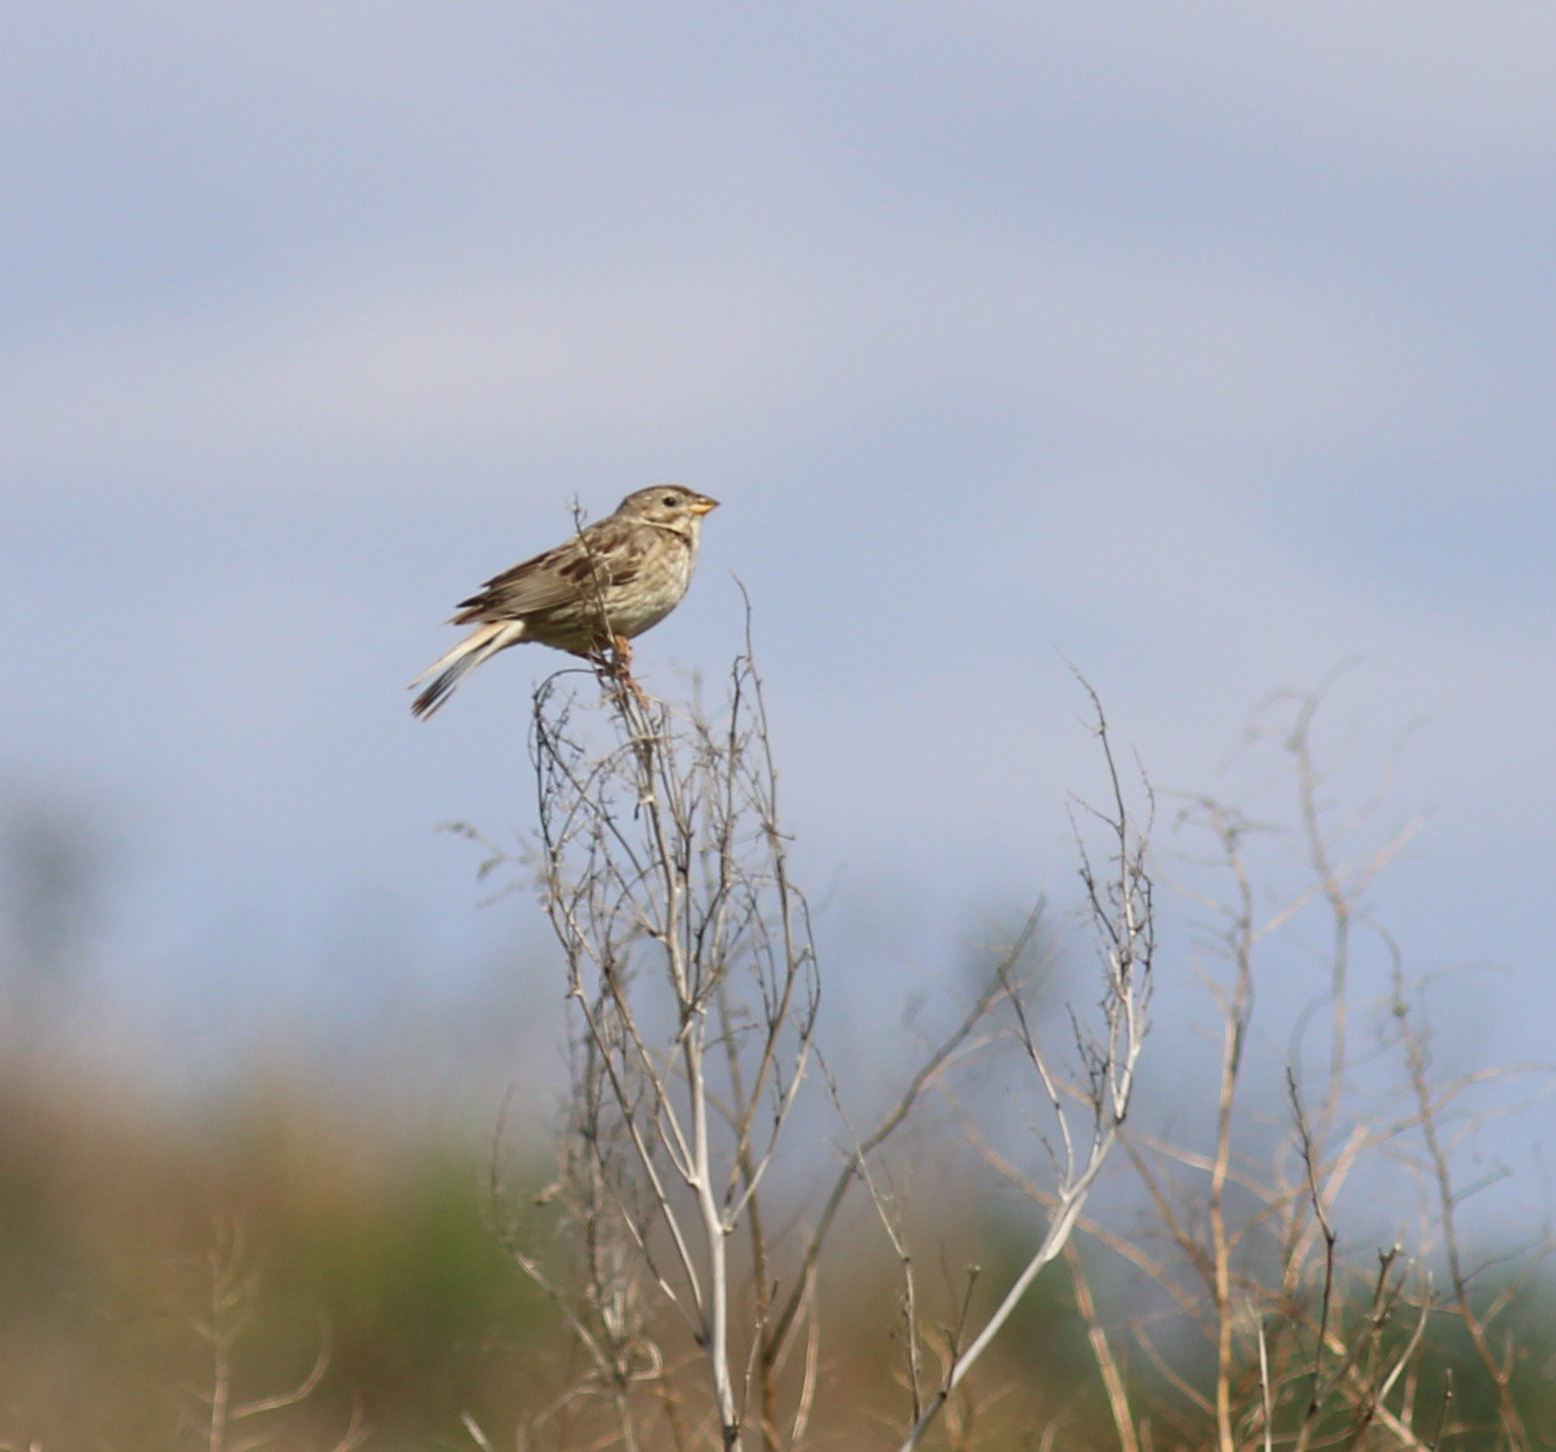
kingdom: Animalia
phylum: Chordata
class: Aves
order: Passeriformes
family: Emberizidae
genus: Emberiza
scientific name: Emberiza calandra
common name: Corn bunting
